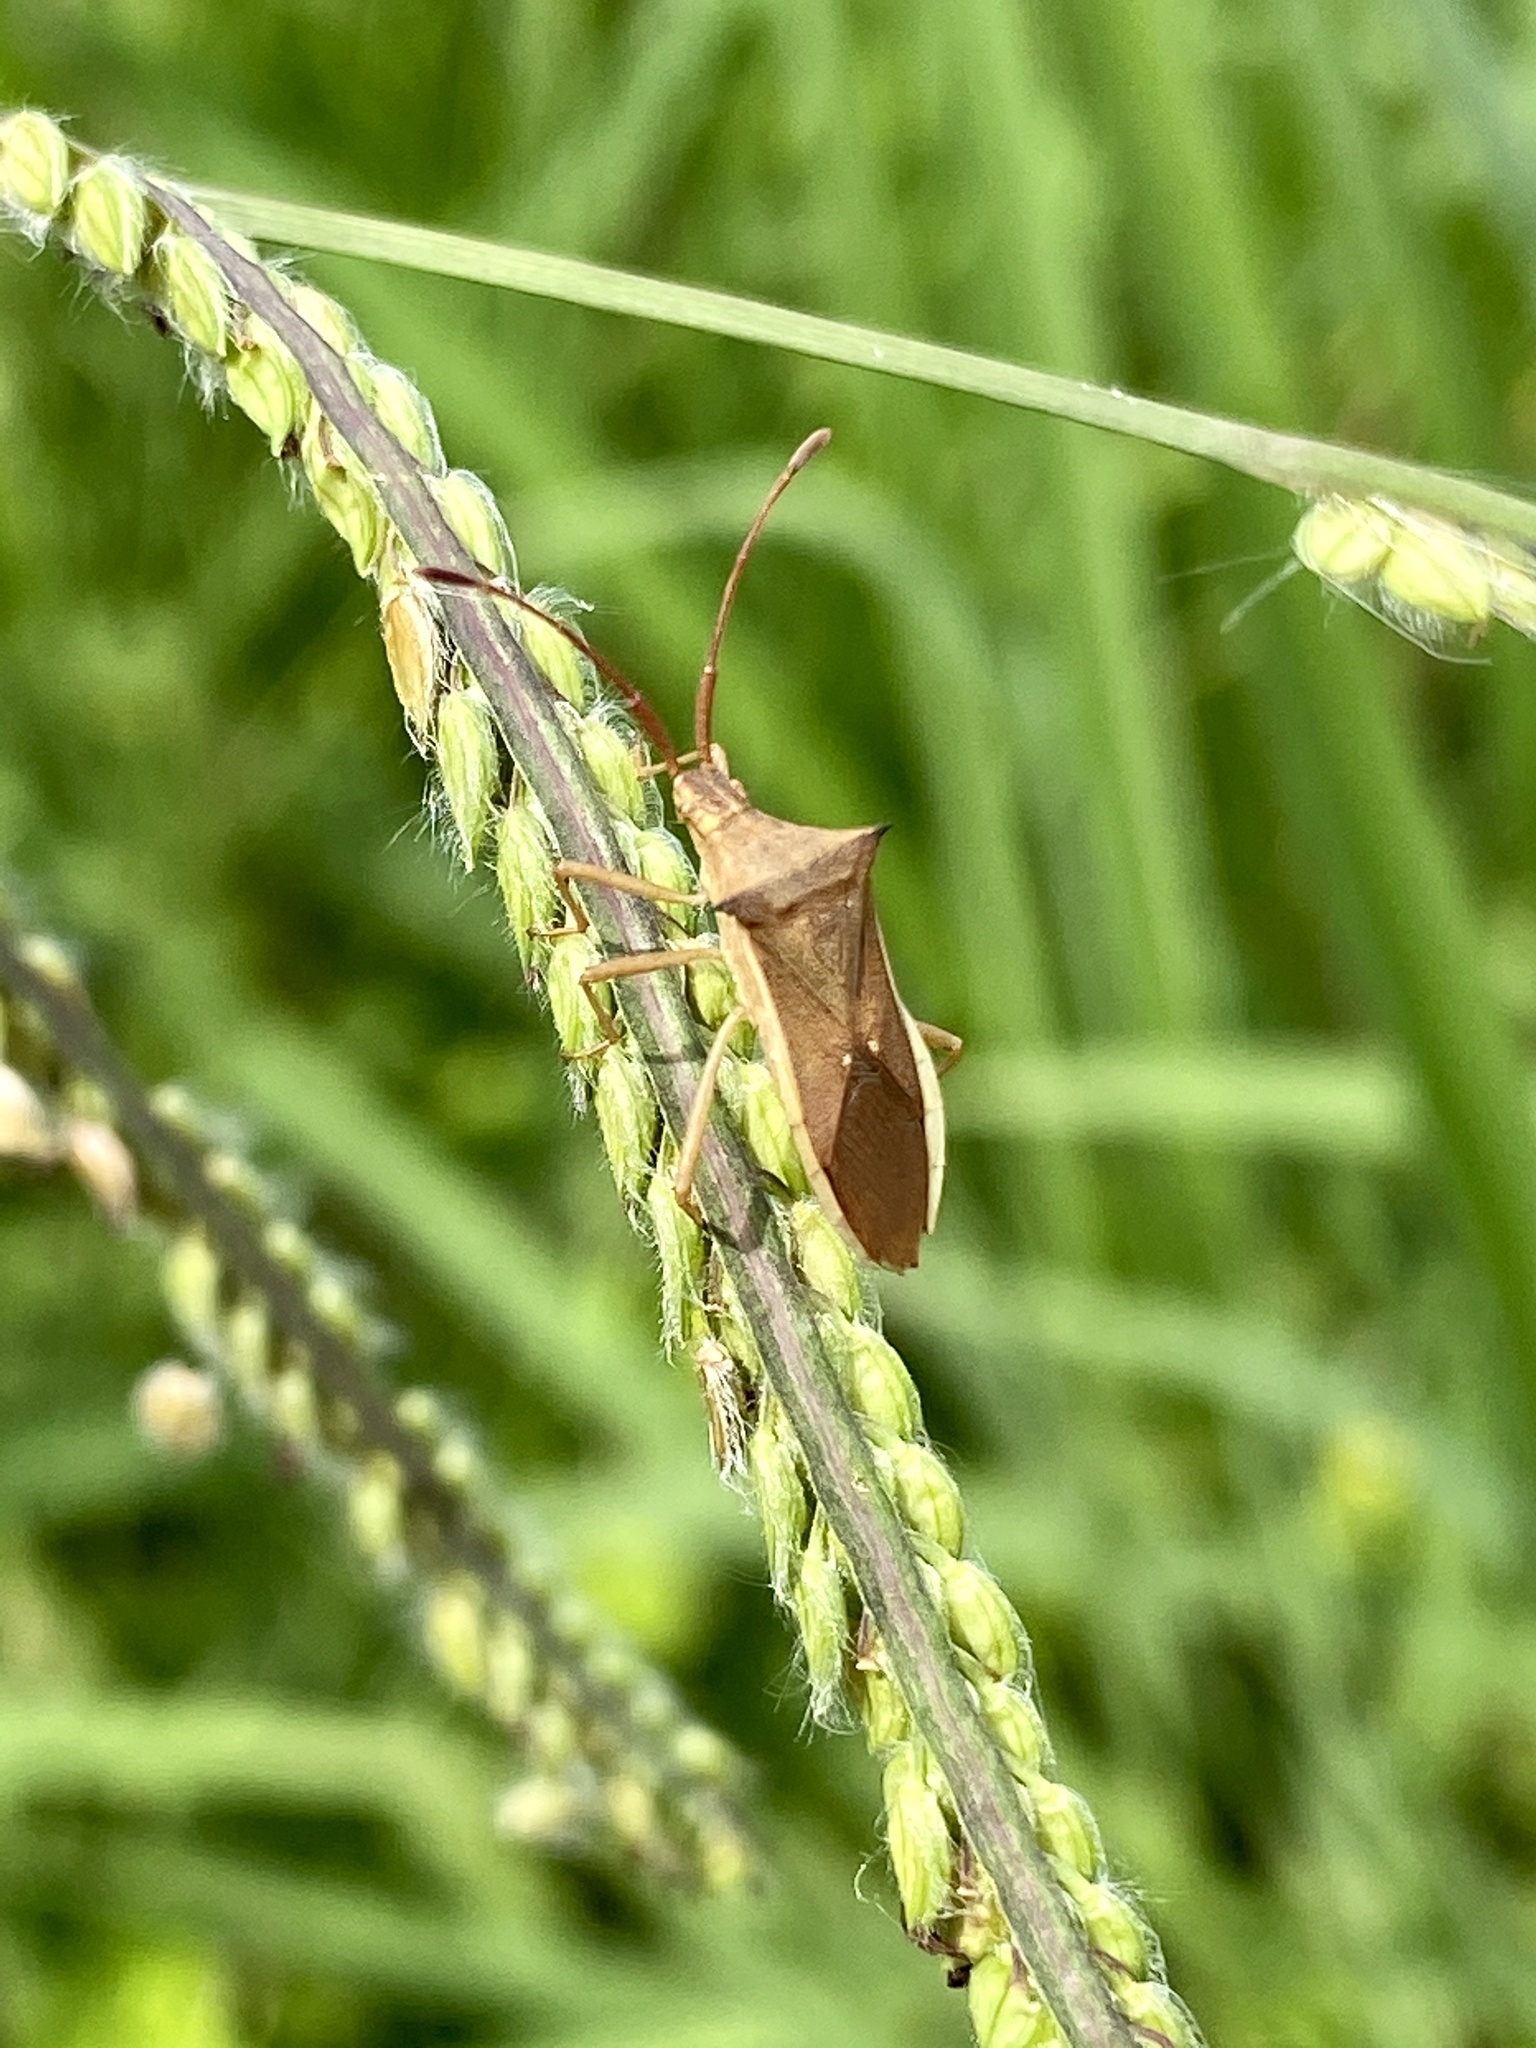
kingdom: Animalia
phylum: Arthropoda
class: Insecta
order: Hemiptera
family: Coreidae
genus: Cletus
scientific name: Cletus punctiger
